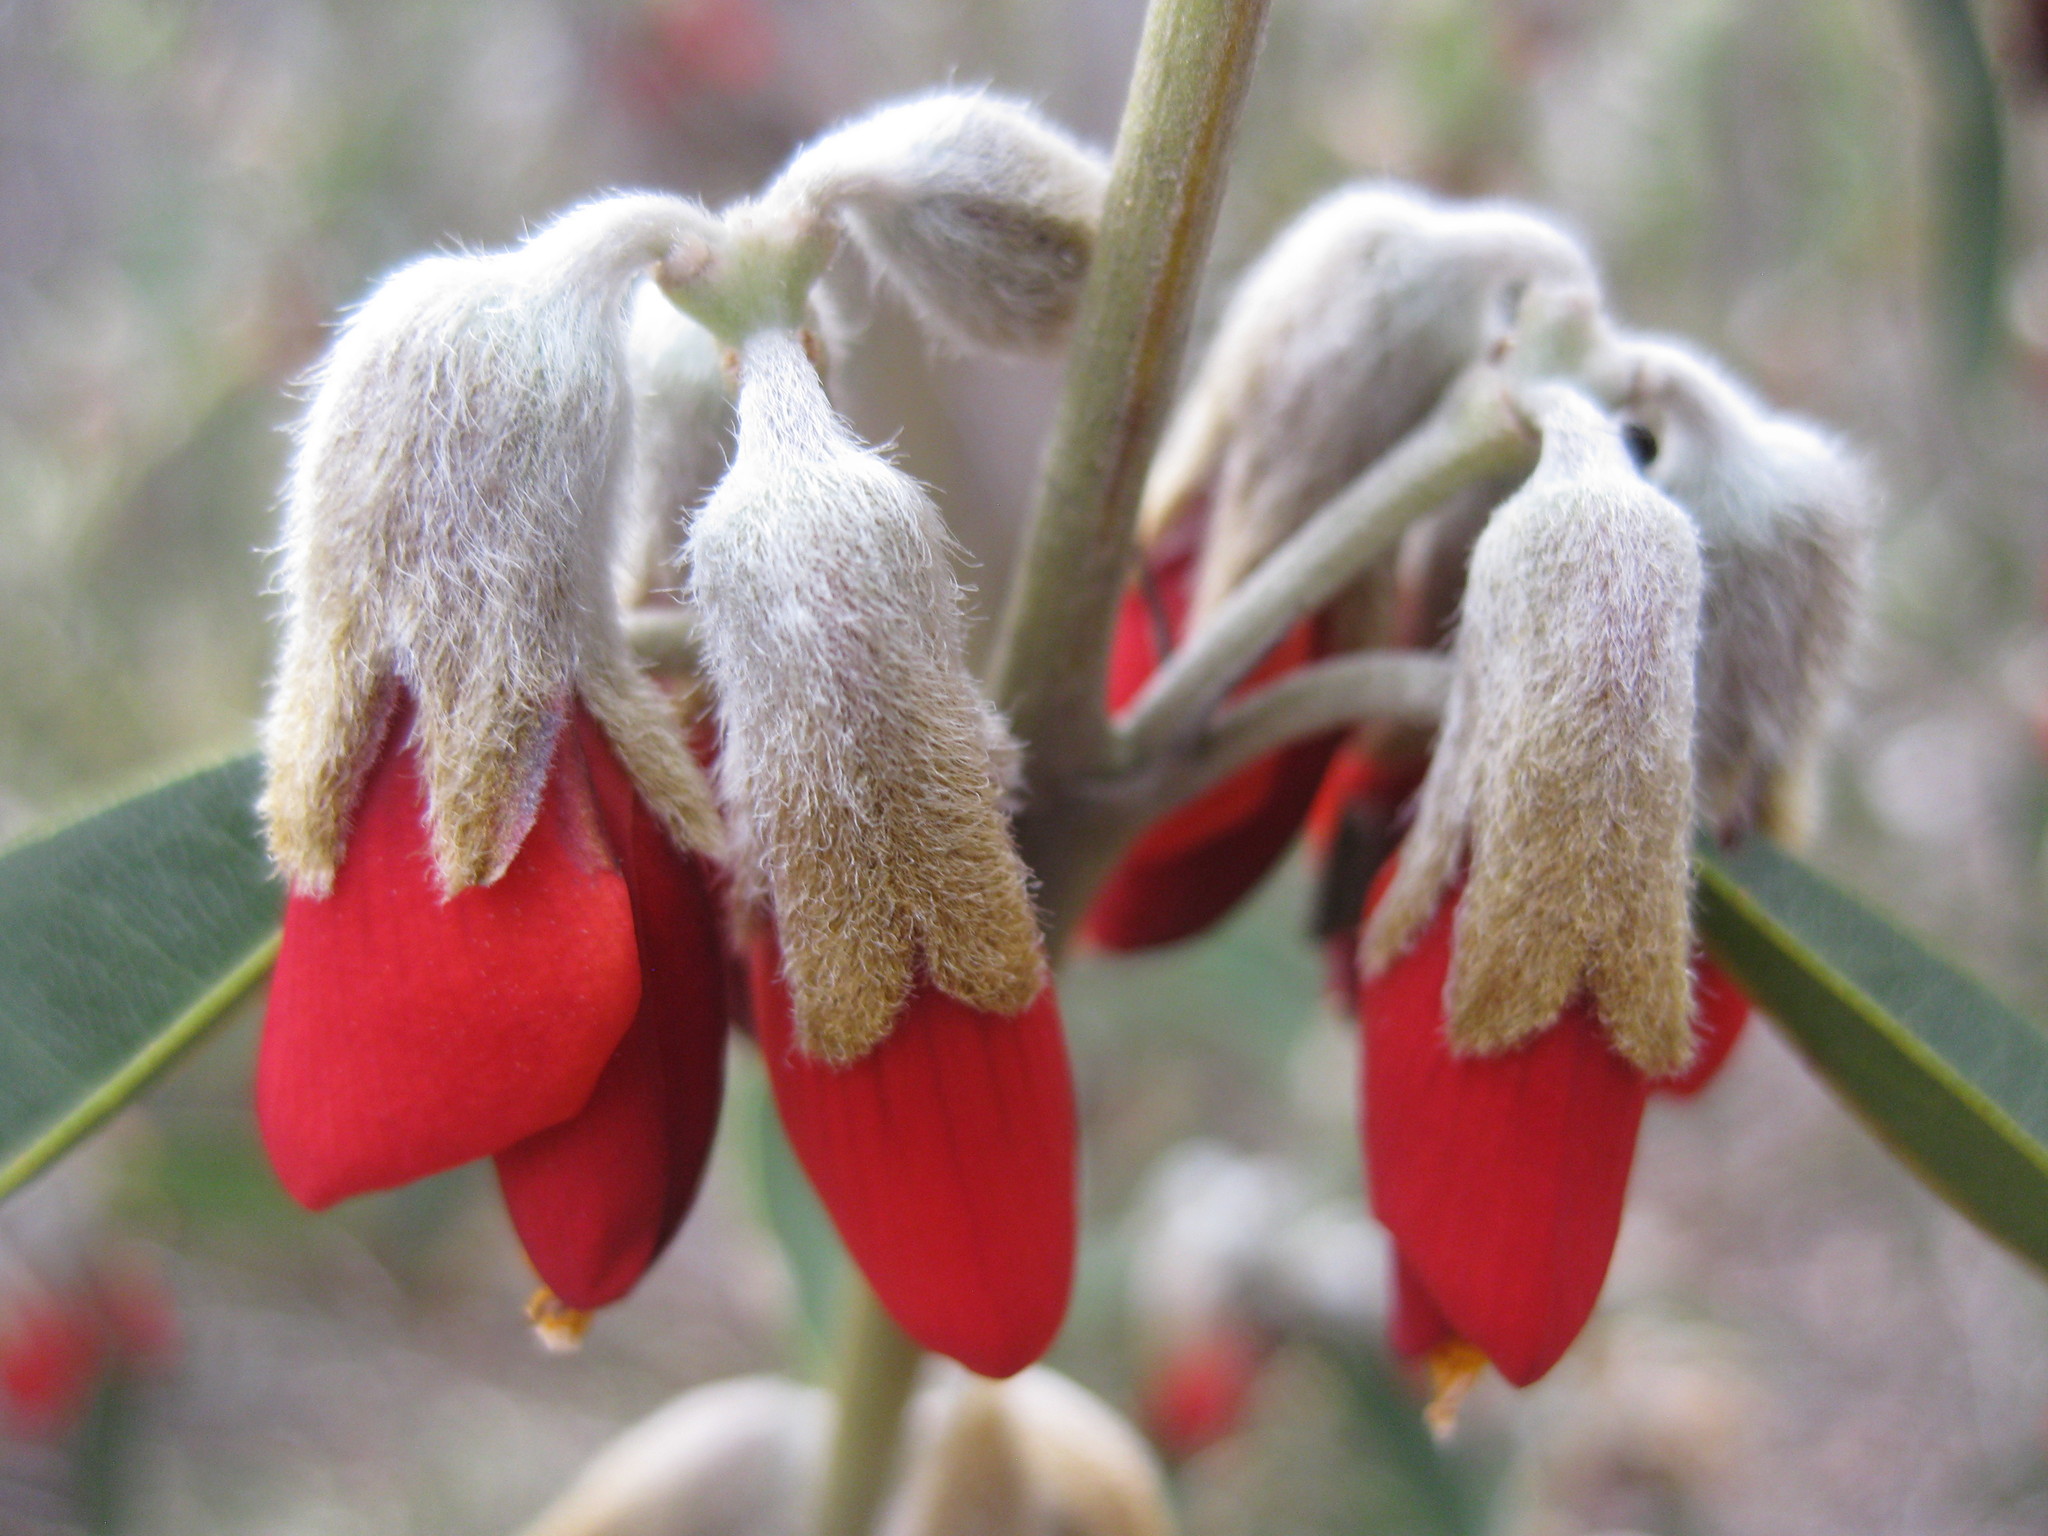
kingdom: Plantae
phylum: Tracheophyta
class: Magnoliopsida
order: Fabales
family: Fabaceae
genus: Gastrolobium
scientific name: Gastrolobium rubrum
